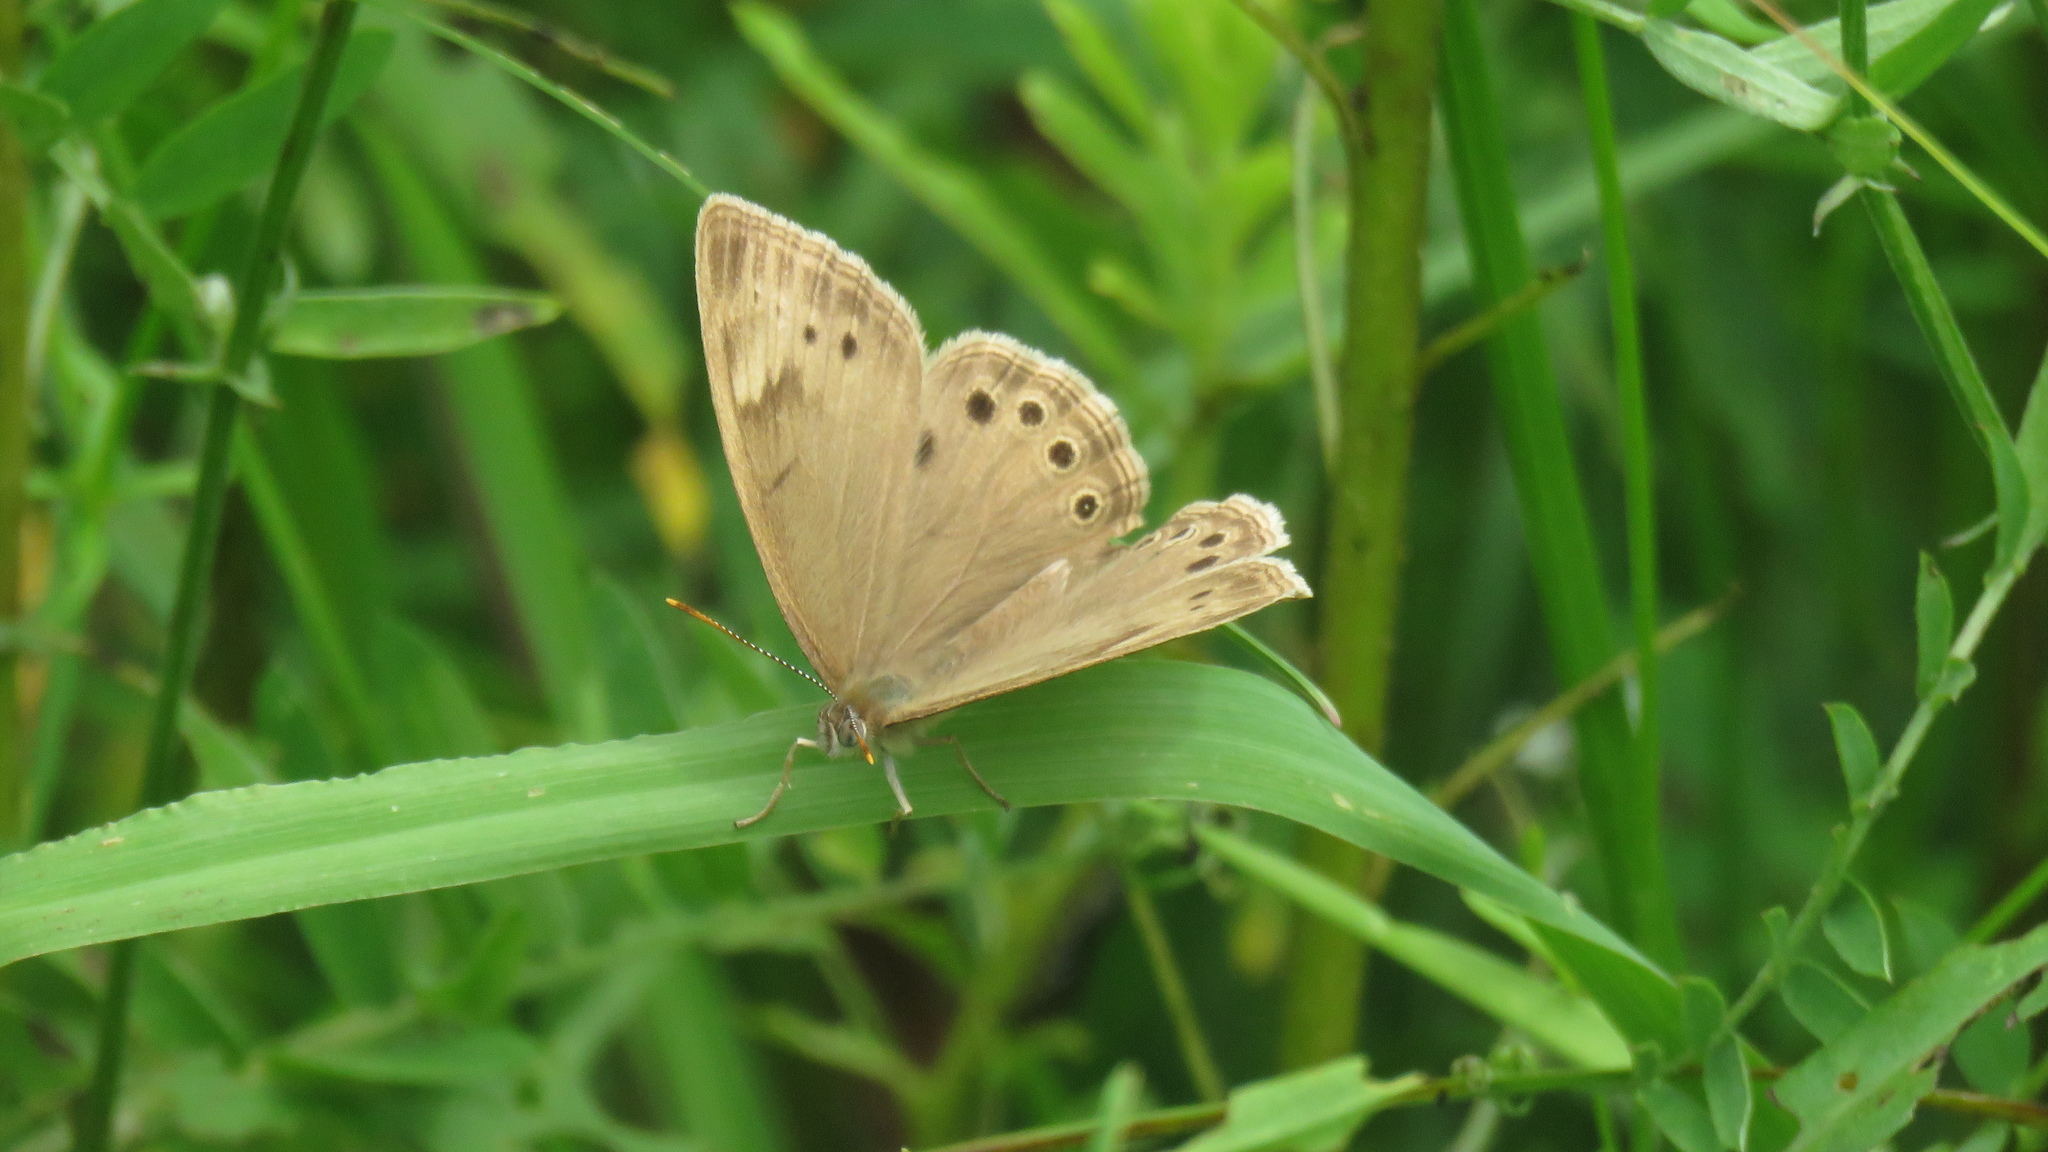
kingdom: Animalia
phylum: Arthropoda
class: Insecta
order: Lepidoptera
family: Nymphalidae
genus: Lethe
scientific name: Lethe eurydice
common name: Eyed brown
